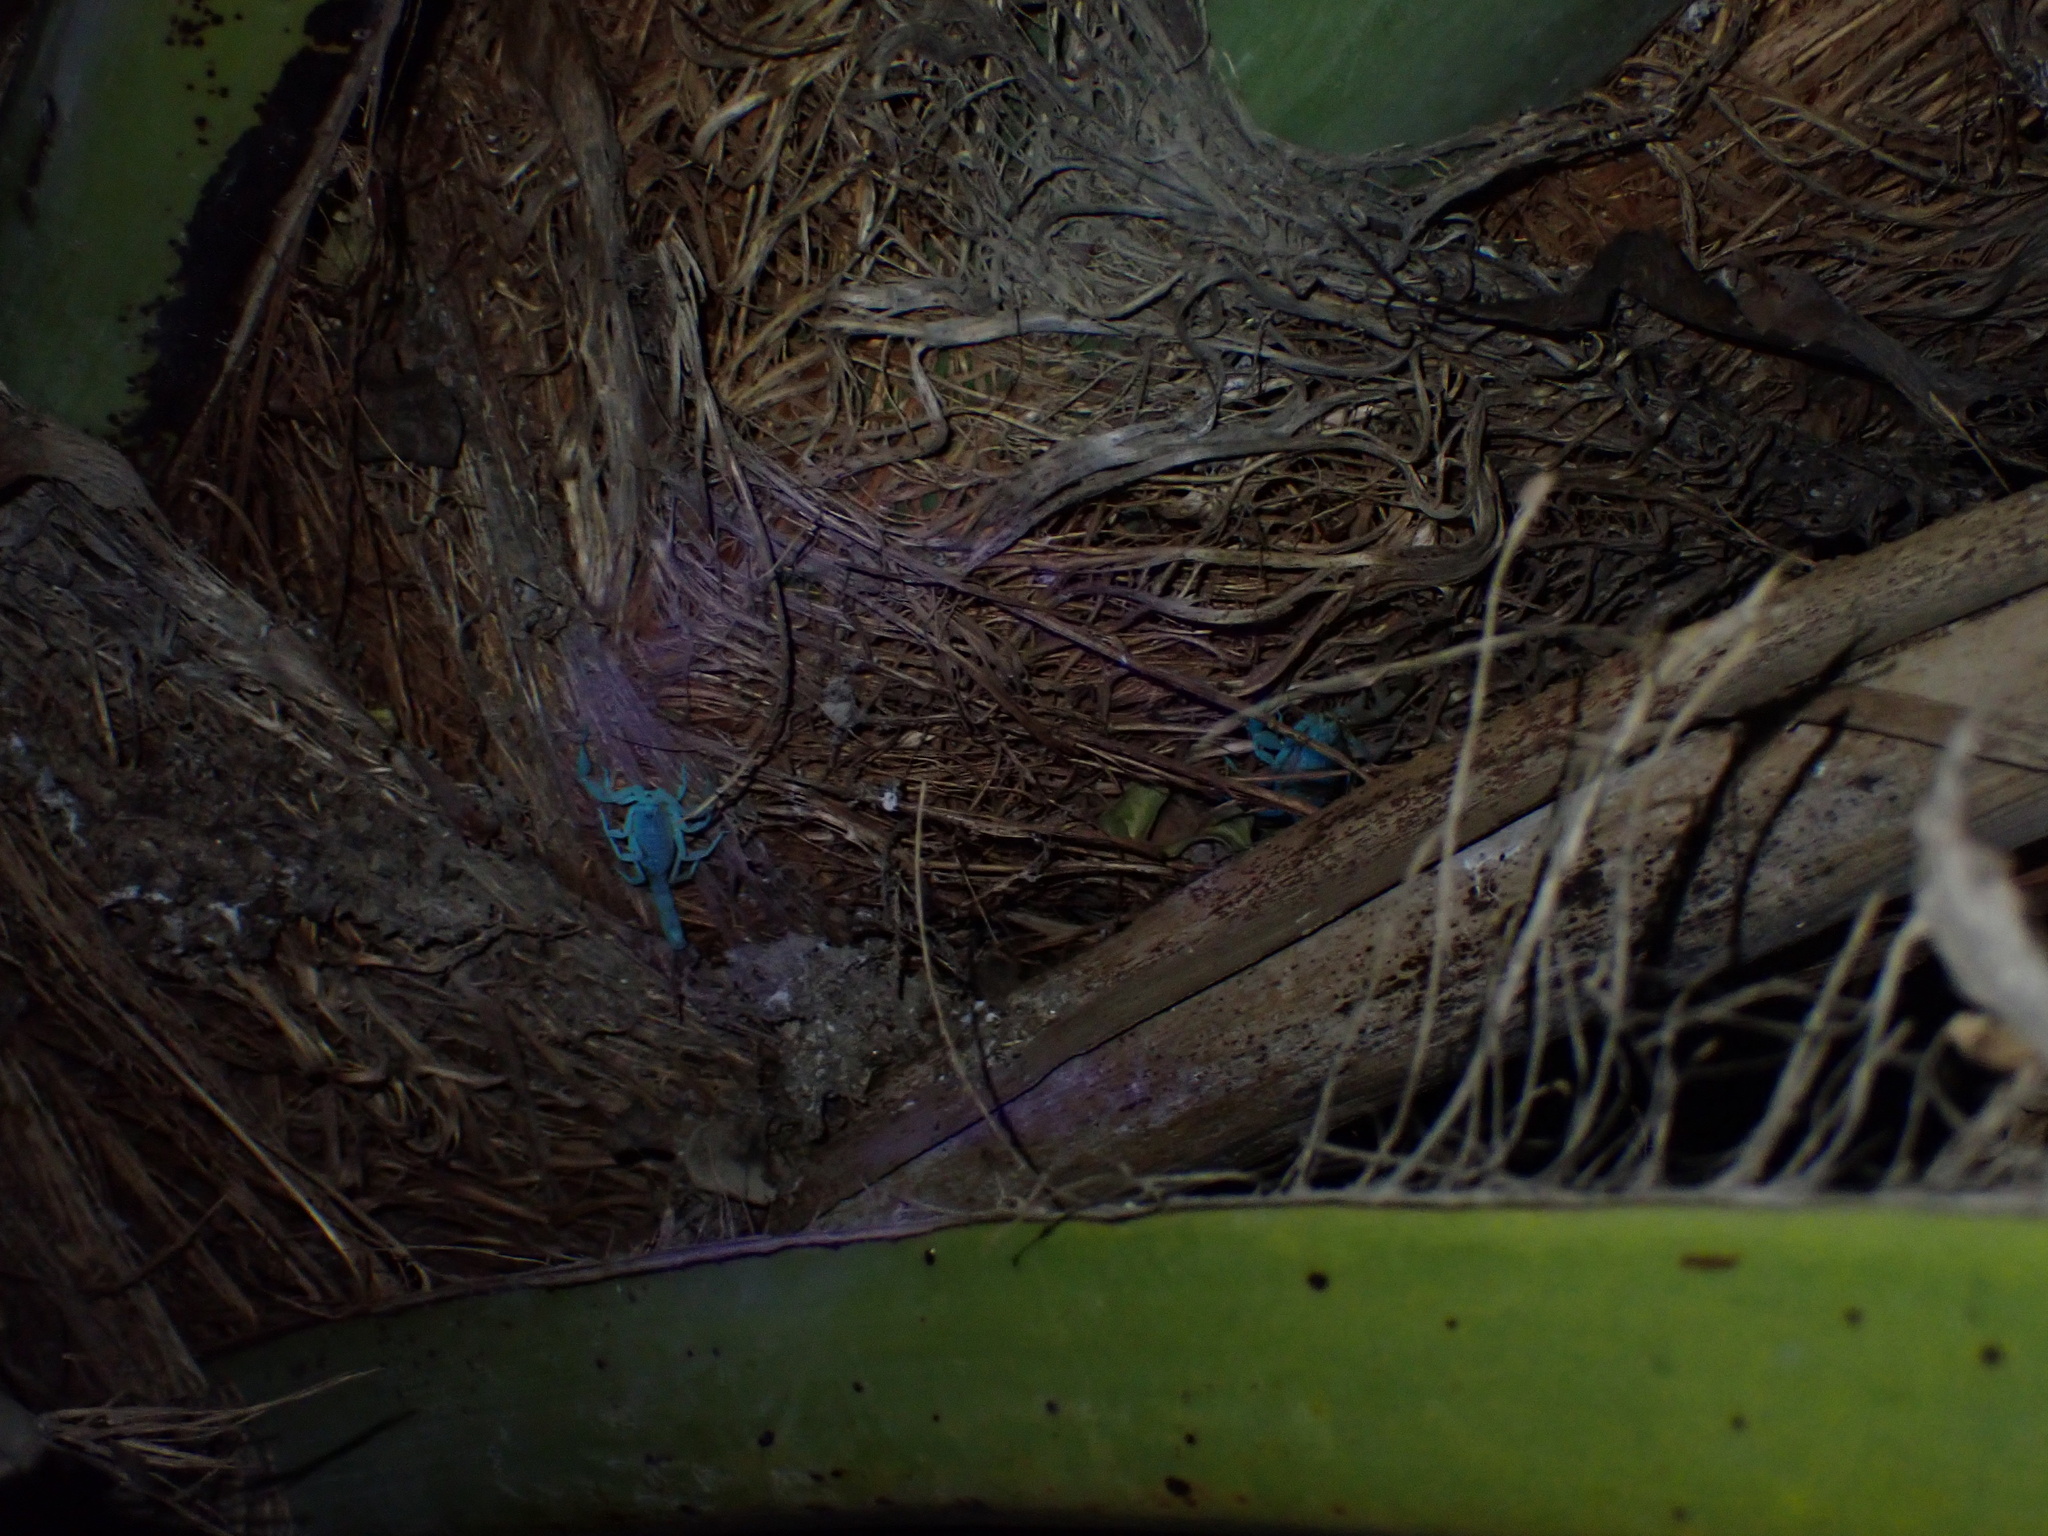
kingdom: Animalia
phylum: Arthropoda
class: Arachnida
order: Scorpiones
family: Buthidae
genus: Mesobuthus
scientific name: Mesobuthus mirshamsii
